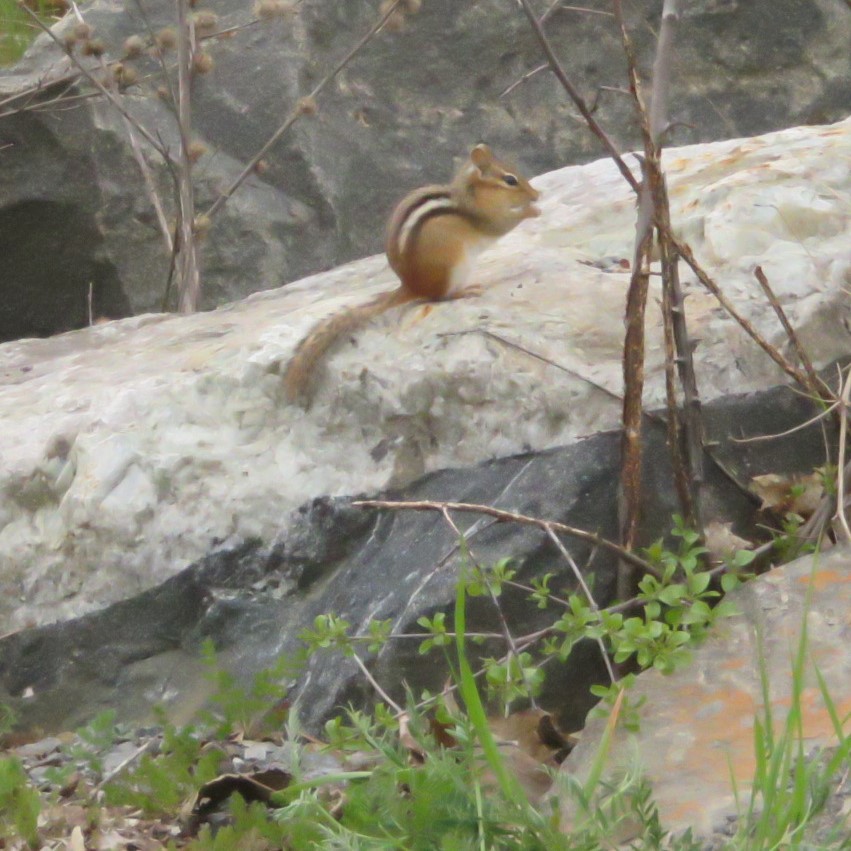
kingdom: Animalia
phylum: Chordata
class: Mammalia
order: Rodentia
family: Sciuridae
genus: Tamias
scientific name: Tamias striatus
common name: Eastern chipmunk
